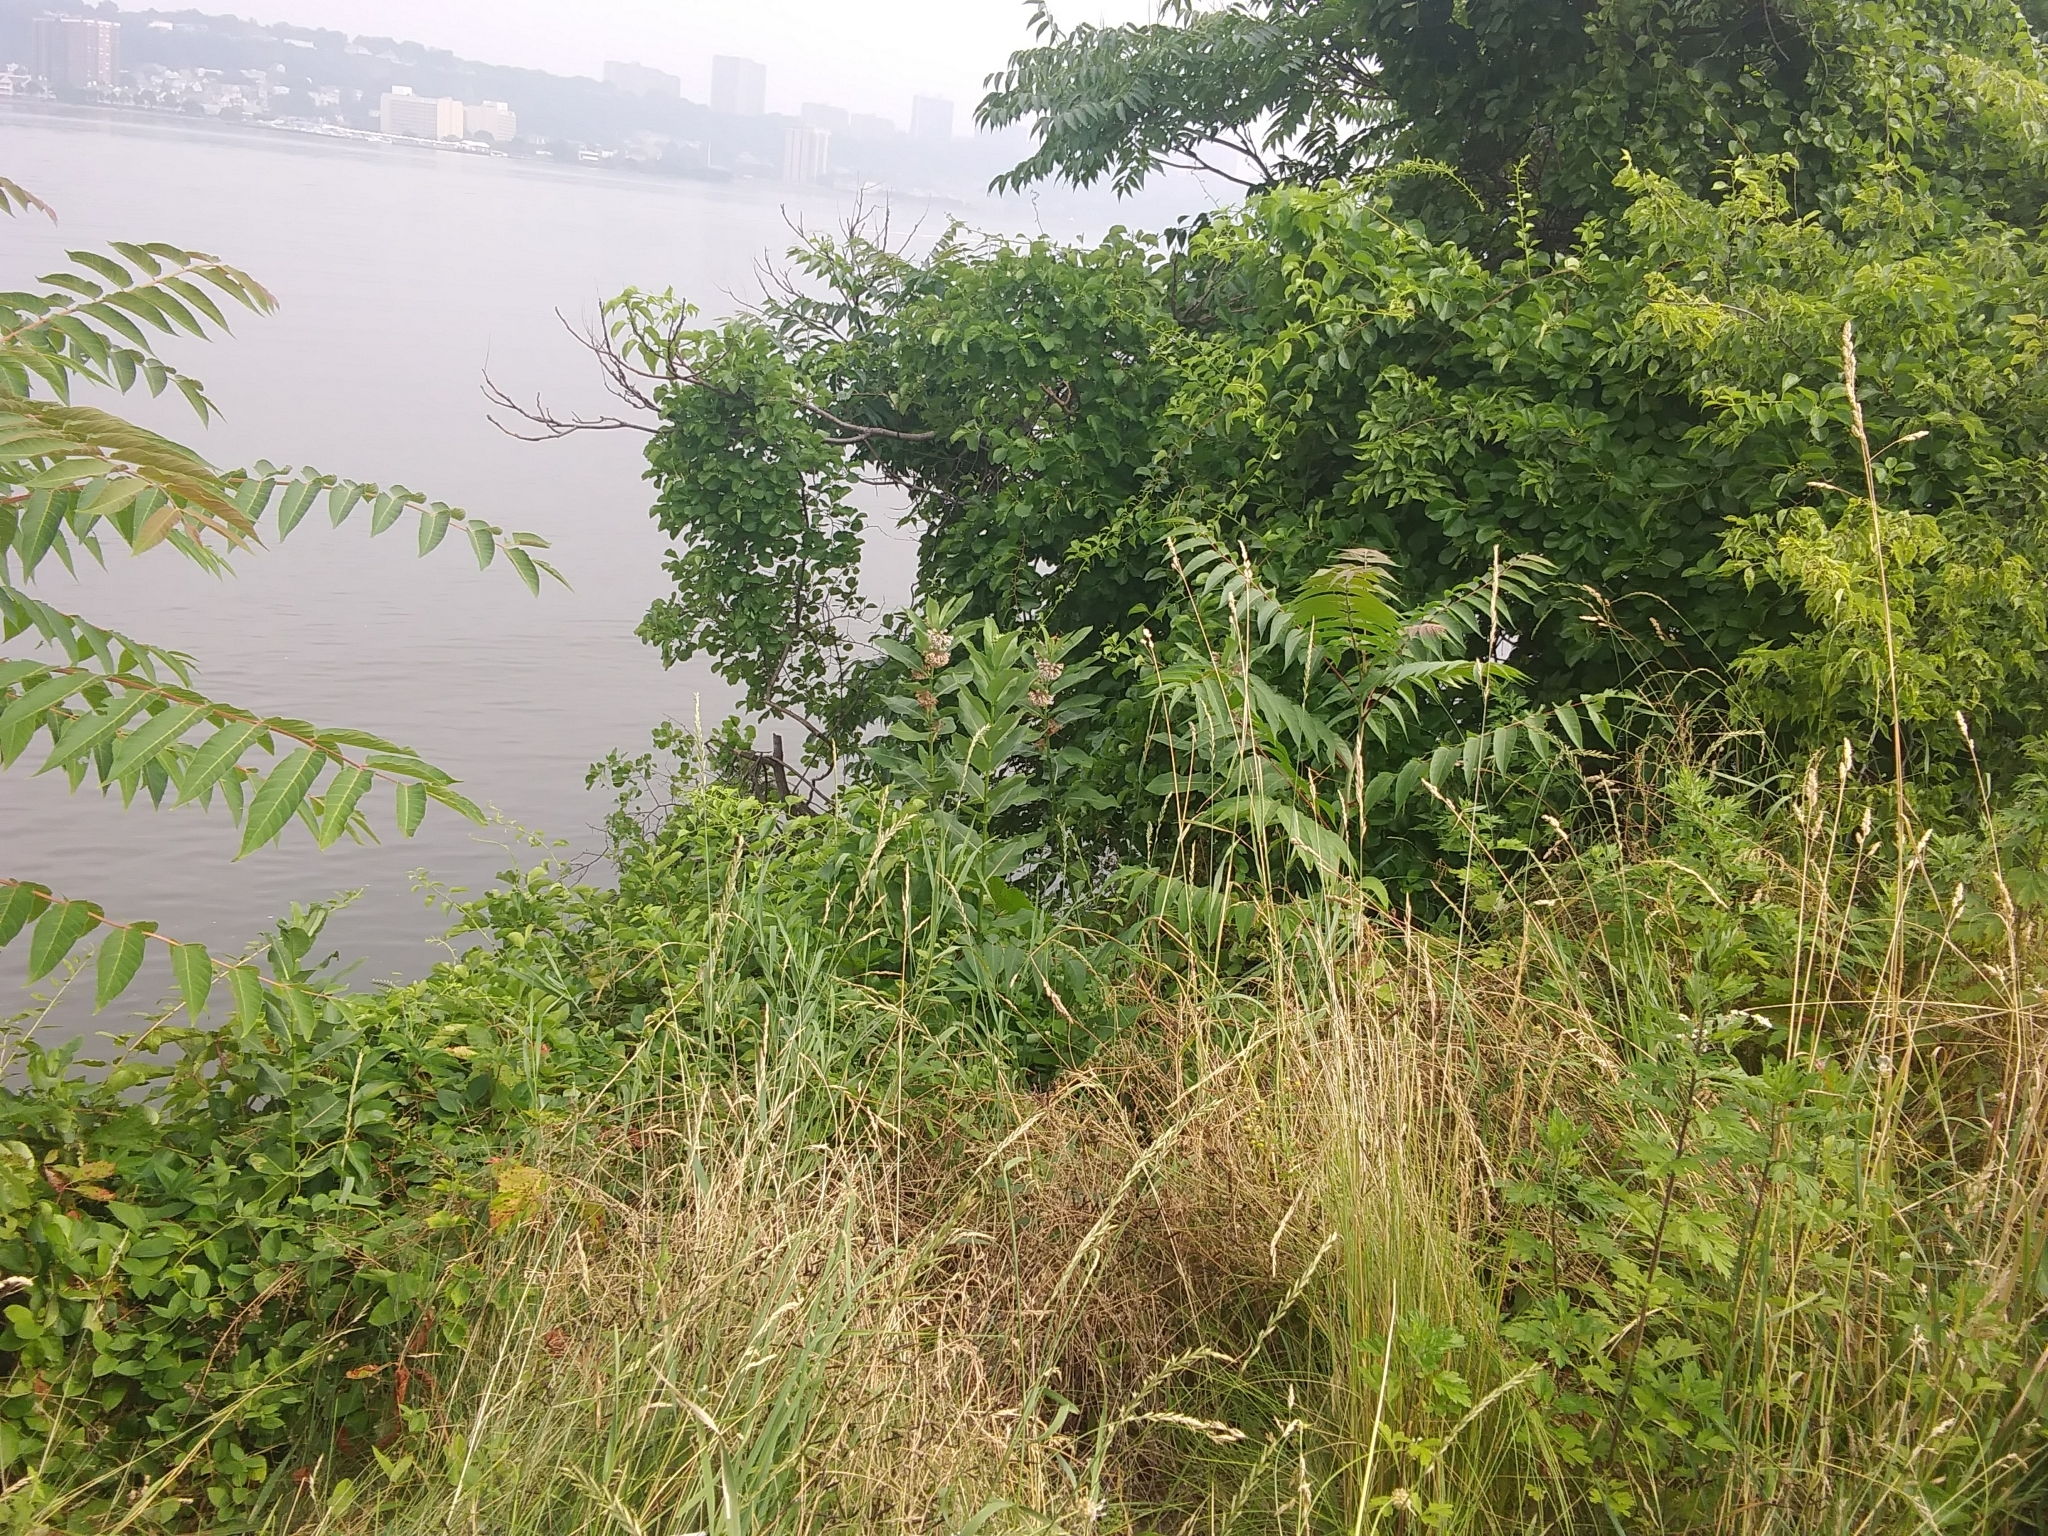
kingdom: Plantae
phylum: Tracheophyta
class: Magnoliopsida
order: Gentianales
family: Apocynaceae
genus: Asclepias
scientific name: Asclepias syriaca
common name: Common milkweed
